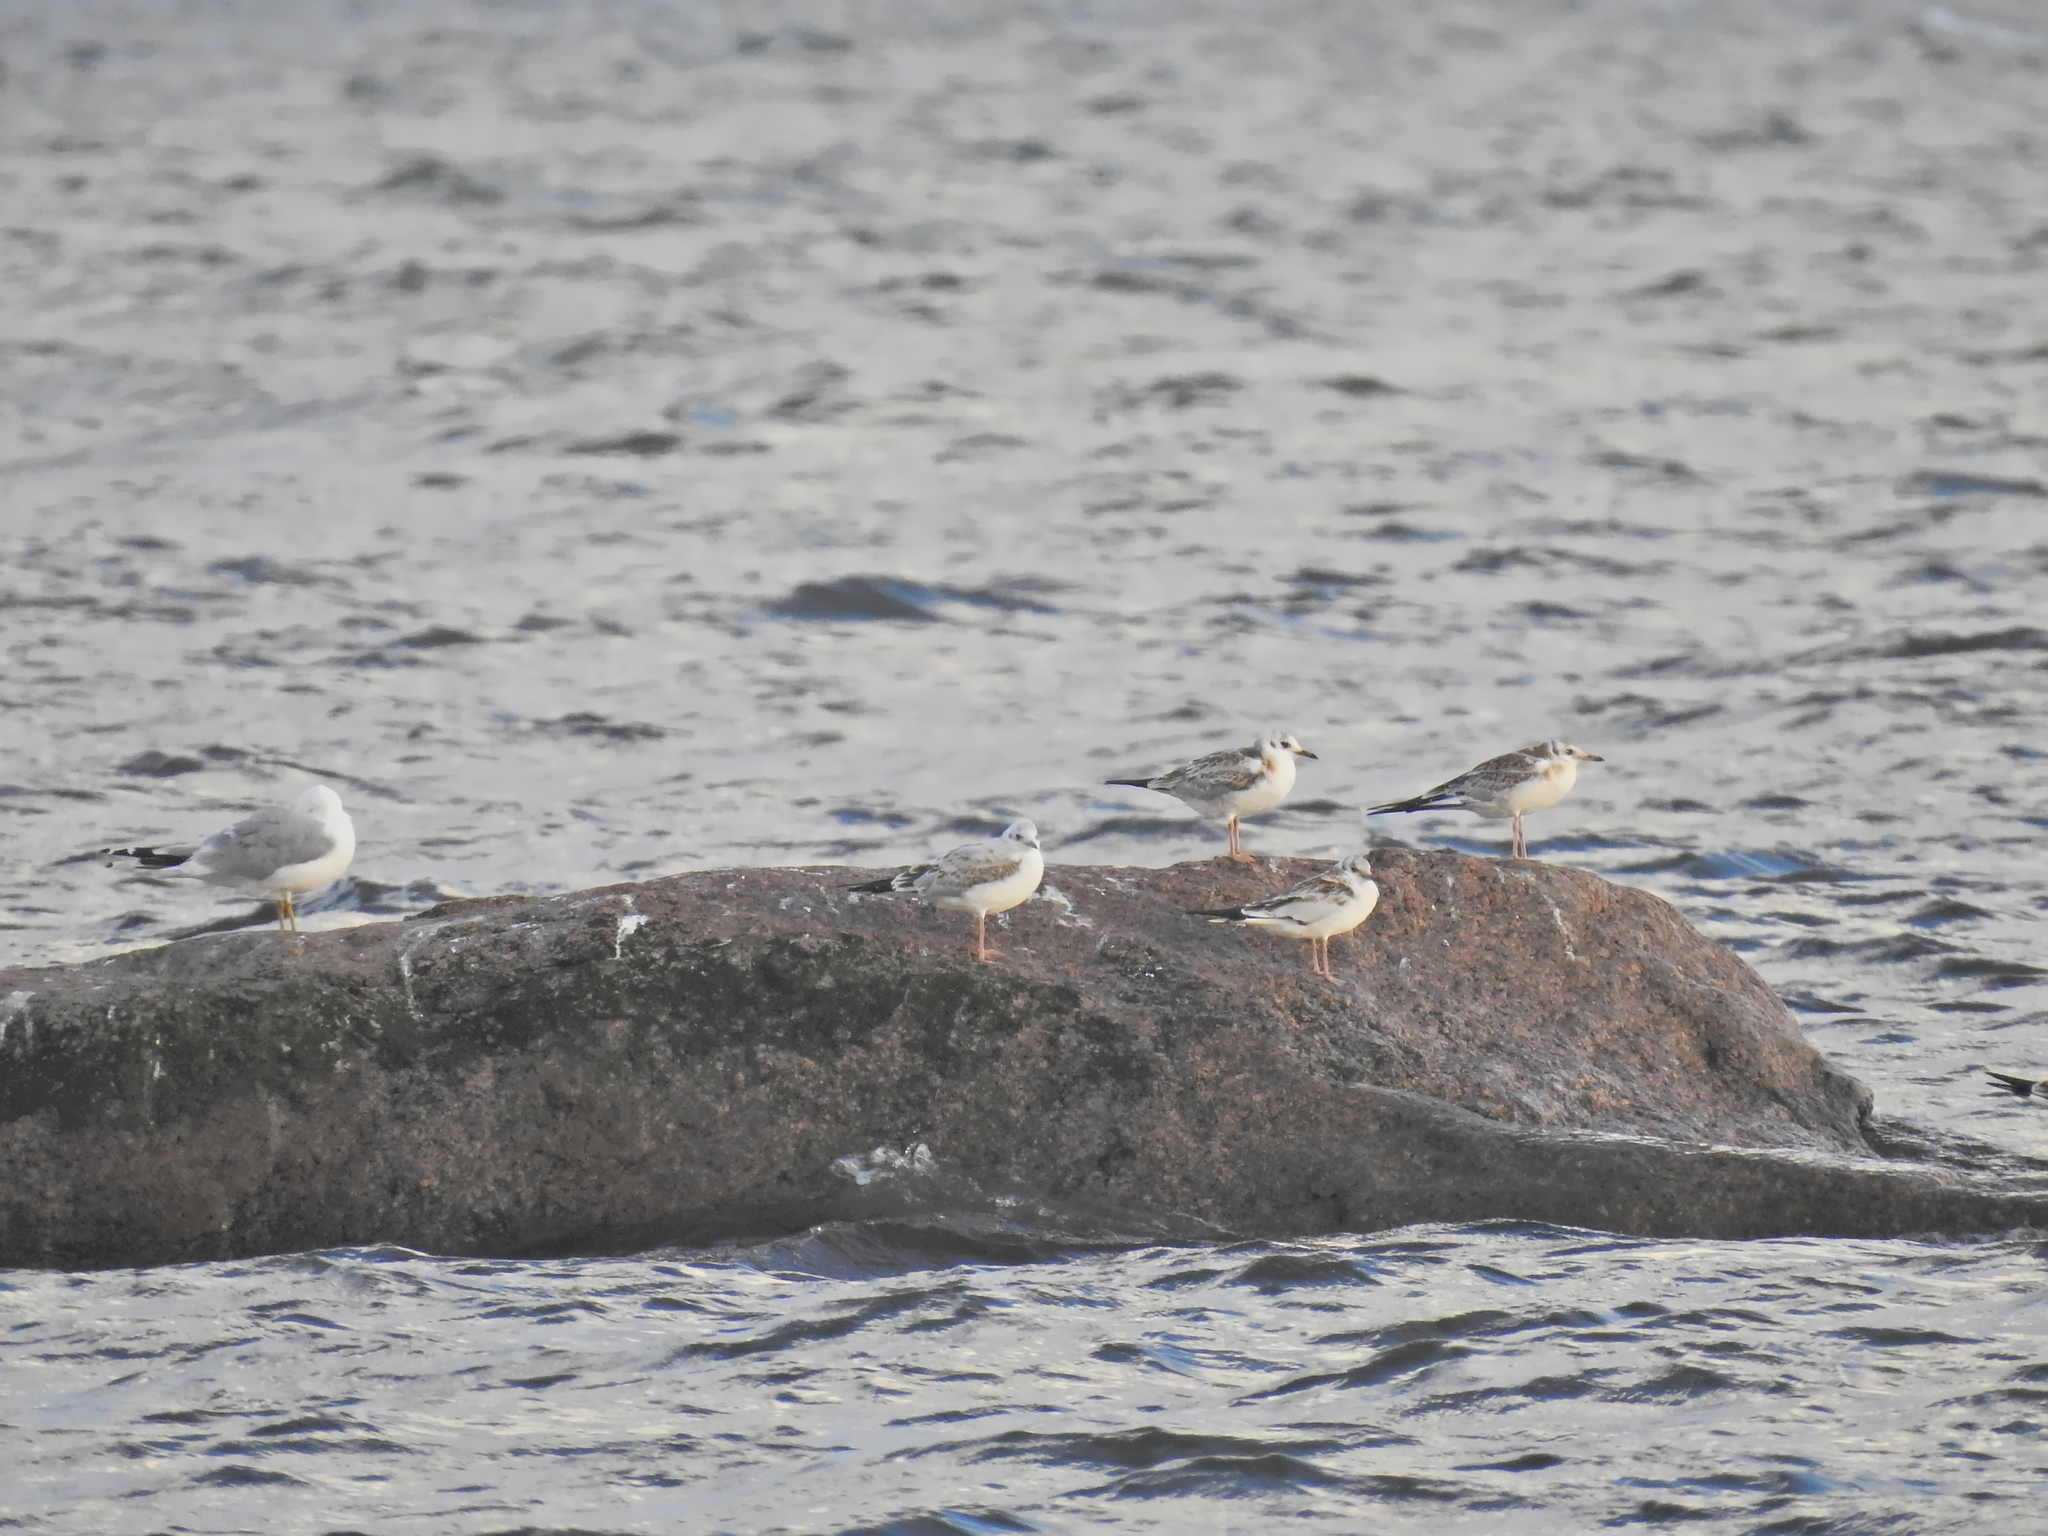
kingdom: Animalia
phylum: Chordata
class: Aves
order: Charadriiformes
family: Laridae
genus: Chroicocephalus
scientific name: Chroicocephalus ridibundus
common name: Black-headed gull
